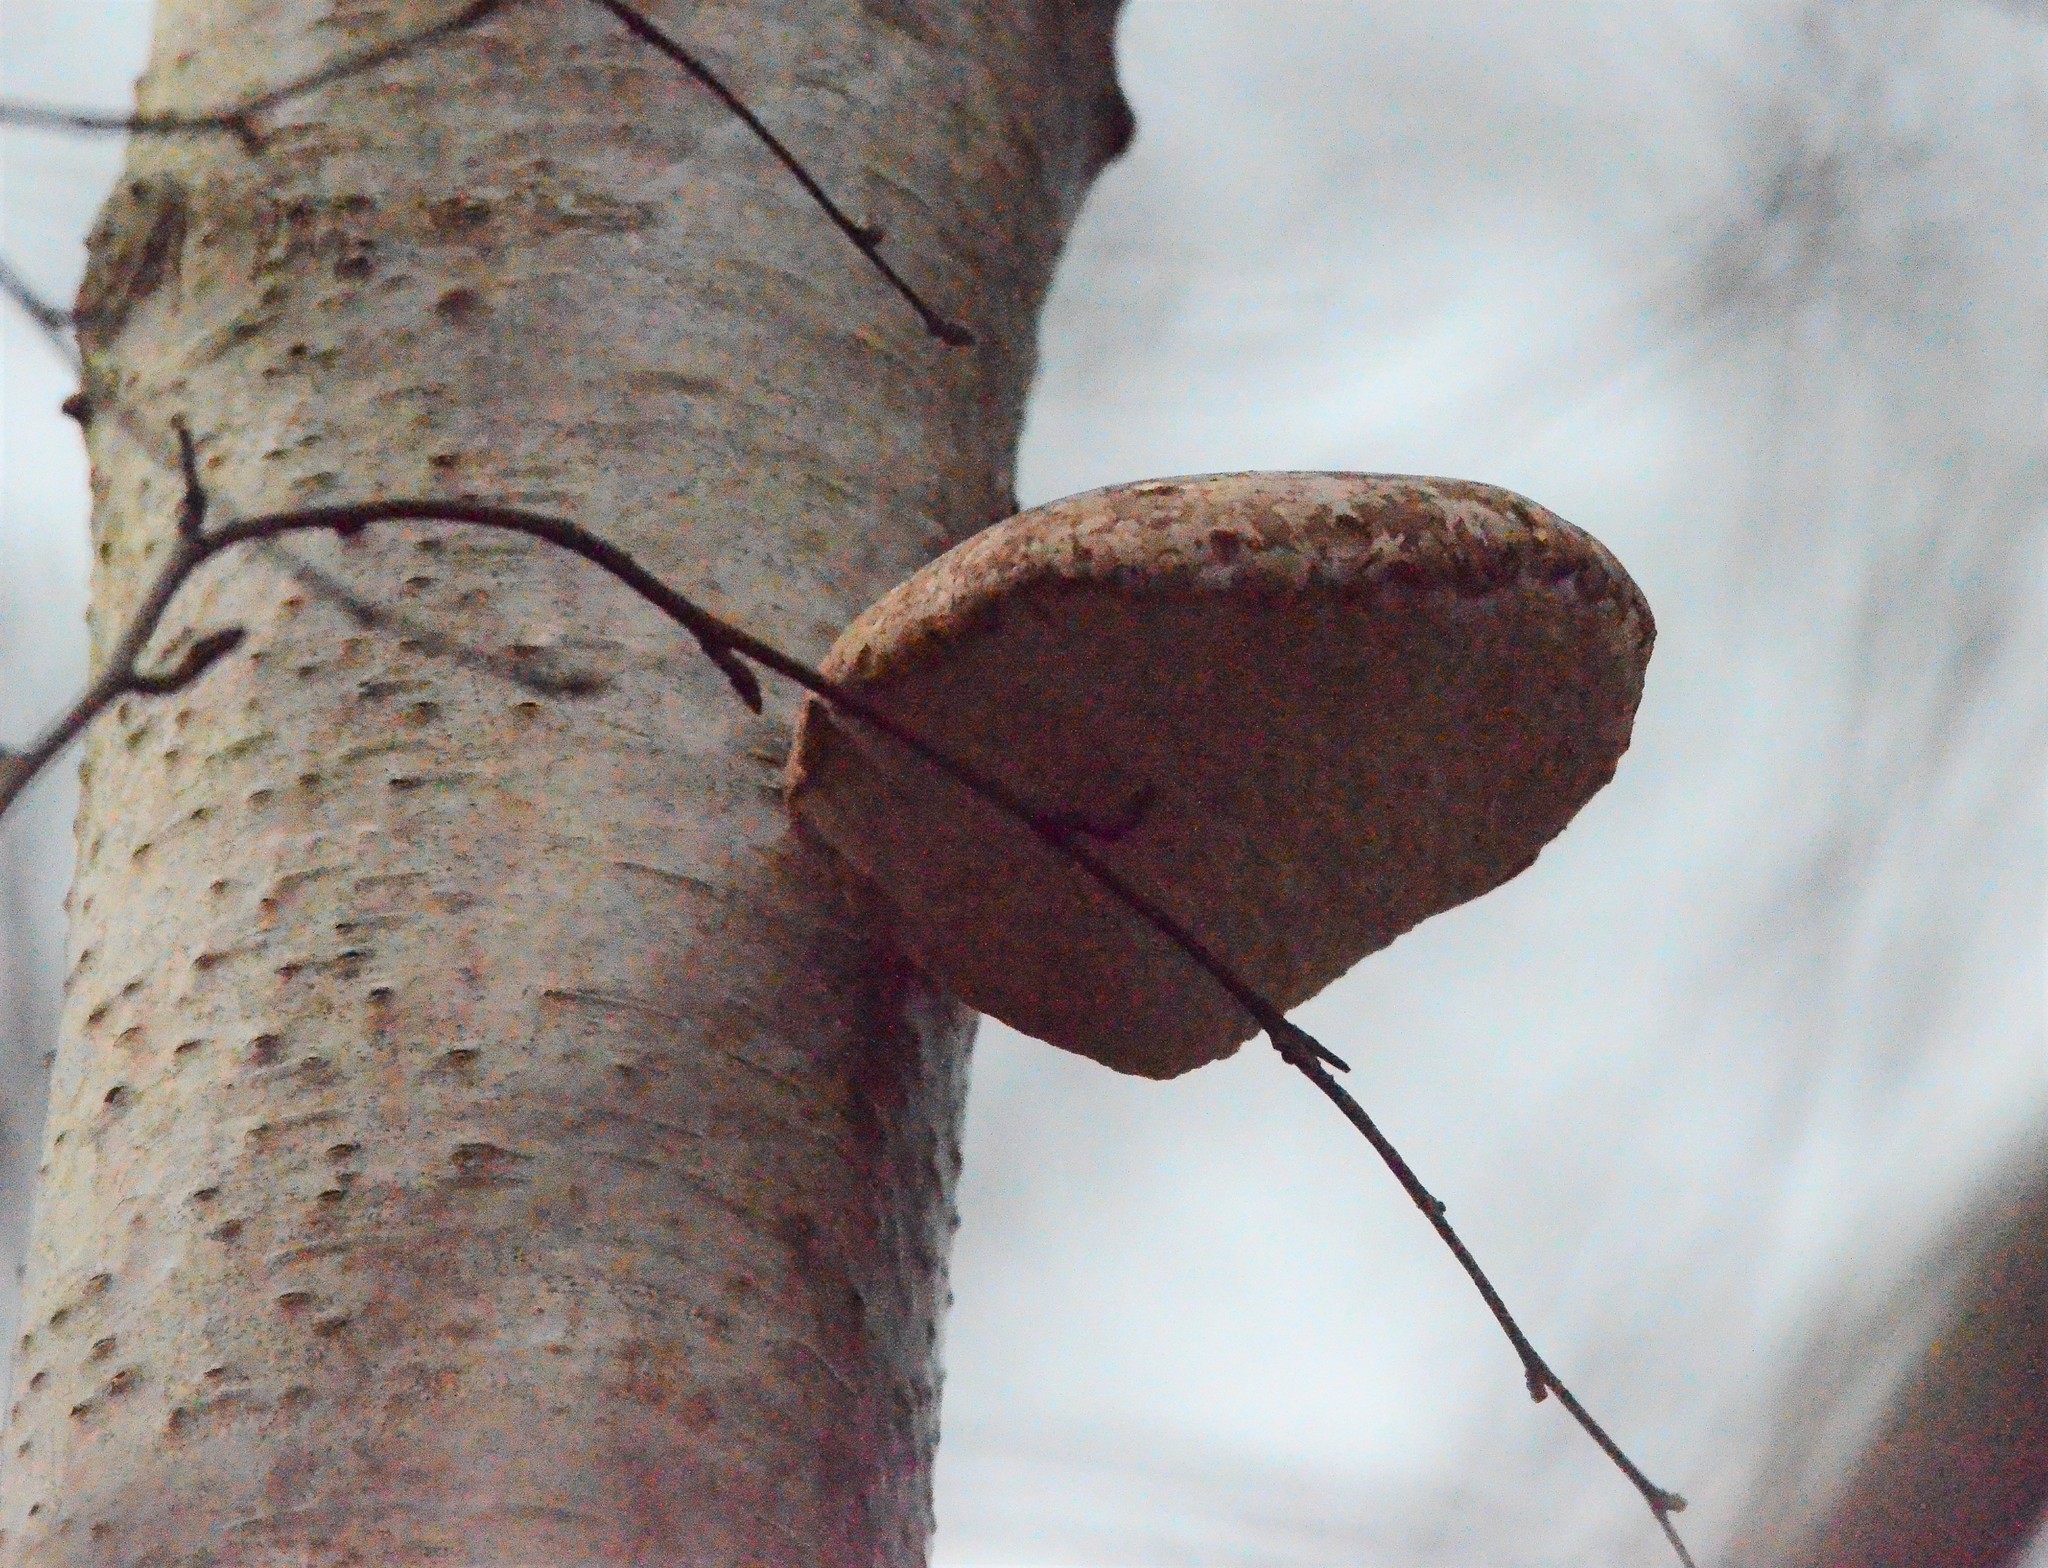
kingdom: Fungi
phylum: Basidiomycota
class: Agaricomycetes
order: Polyporales
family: Fomitopsidaceae
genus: Fomitopsis
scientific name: Fomitopsis betulina
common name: Birch polypore
